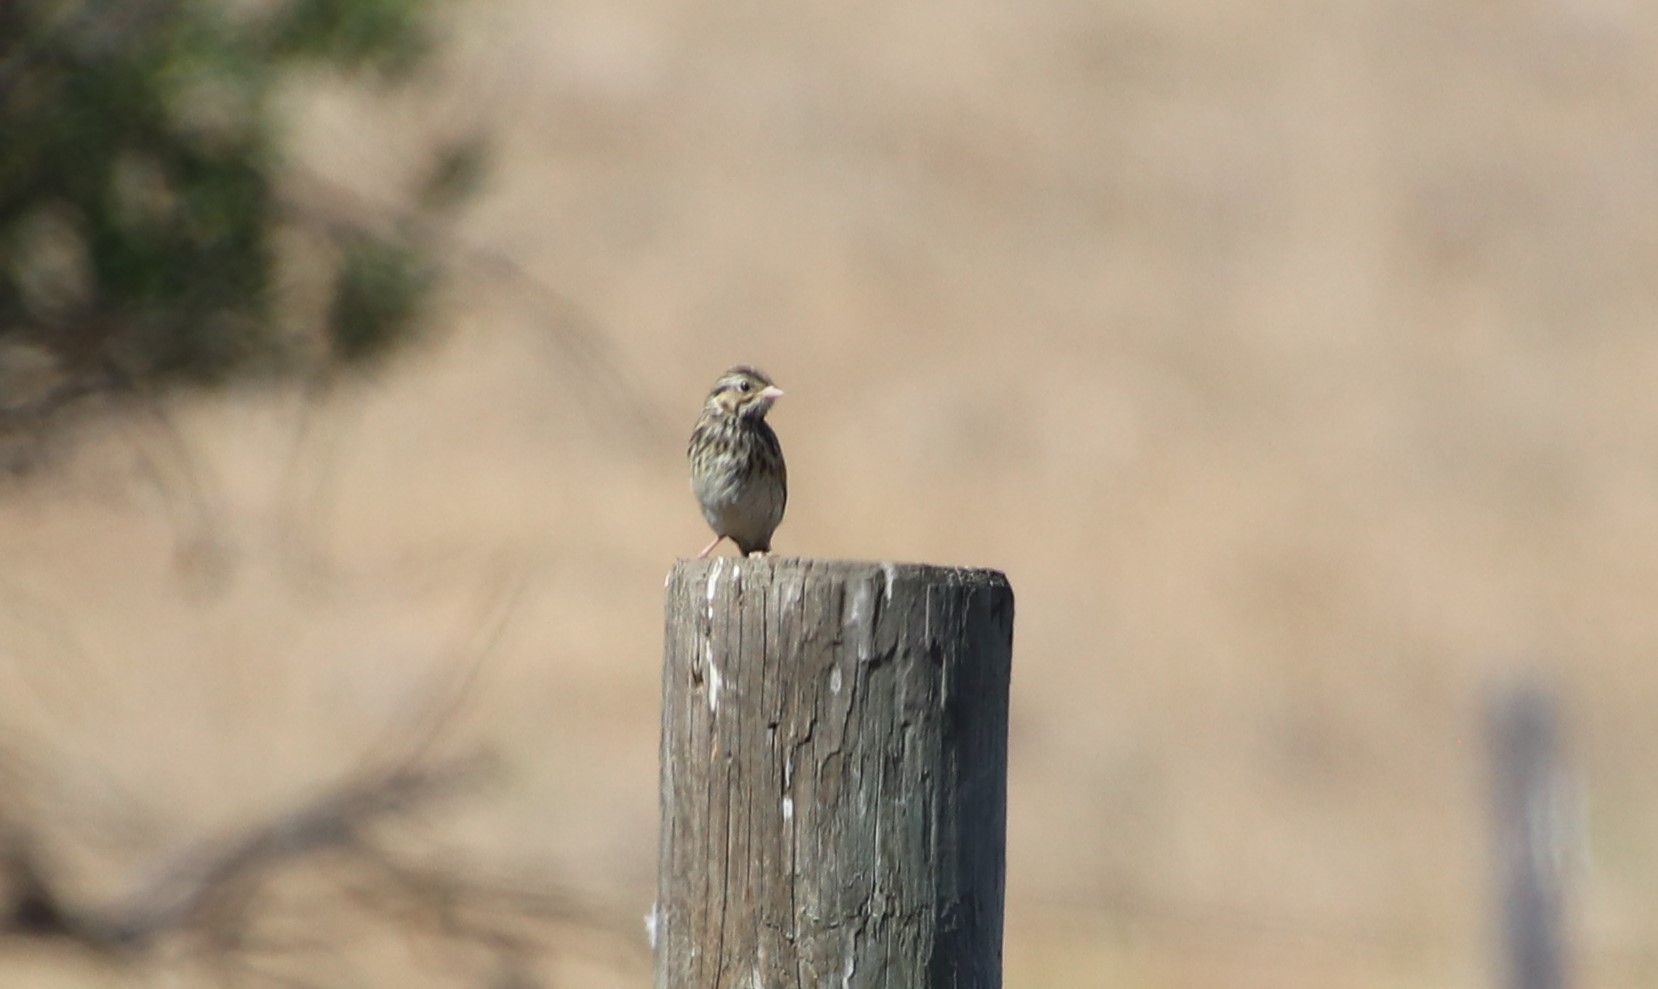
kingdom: Animalia
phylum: Chordata
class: Aves
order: Passeriformes
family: Passerellidae
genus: Passerculus
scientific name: Passerculus sandwichensis
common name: Savannah sparrow
